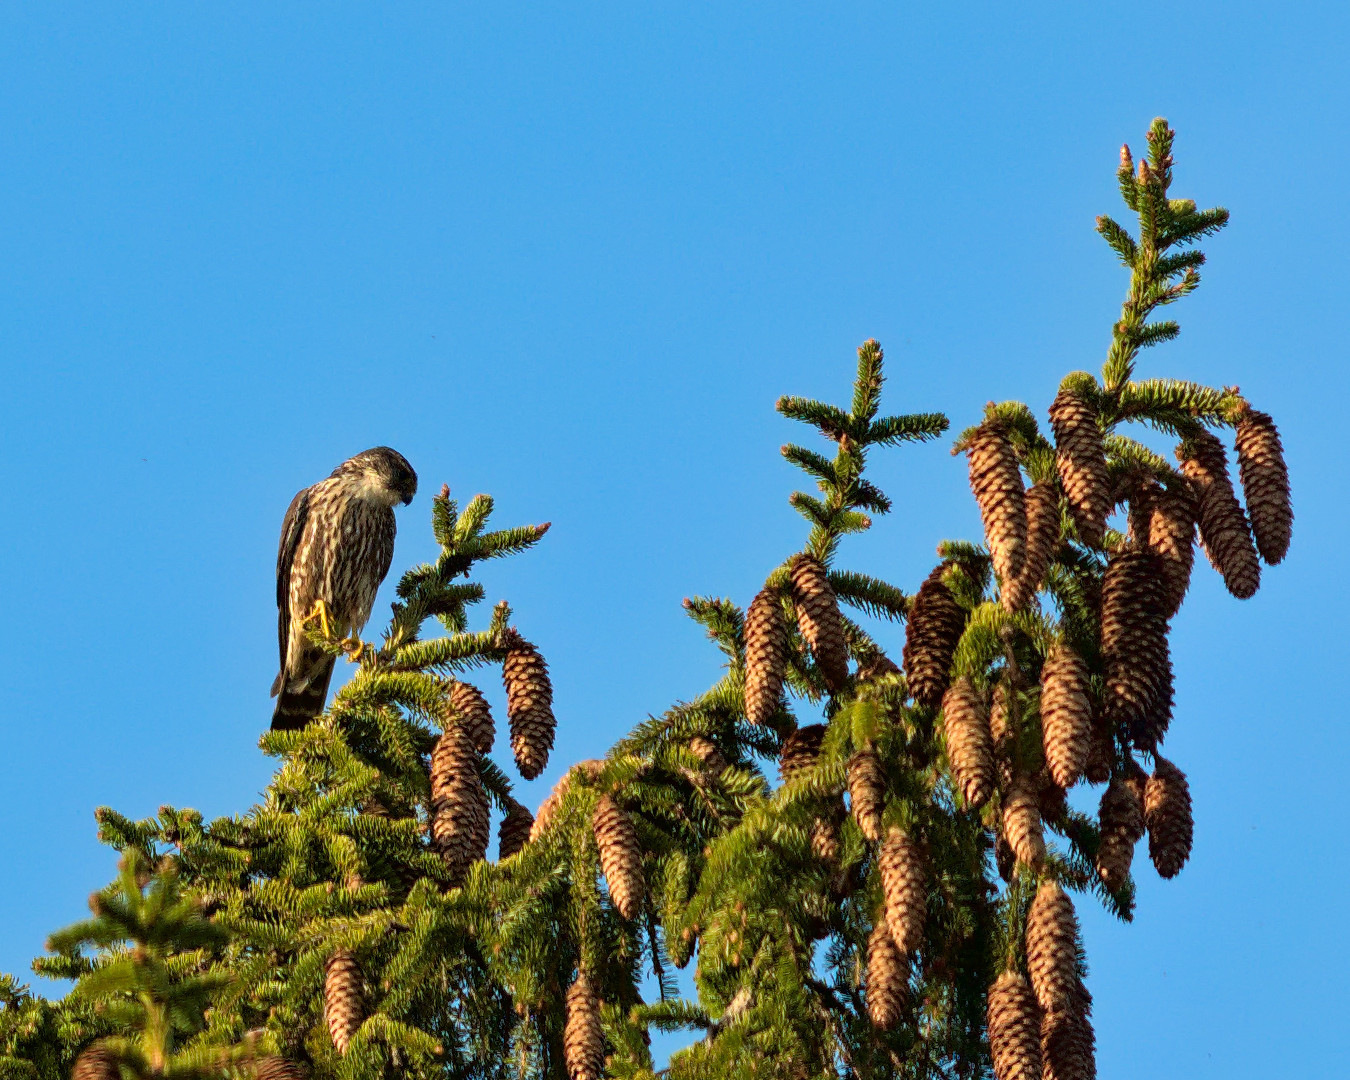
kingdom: Animalia
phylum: Chordata
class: Aves
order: Falconiformes
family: Falconidae
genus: Falco
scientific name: Falco columbarius
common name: Merlin
